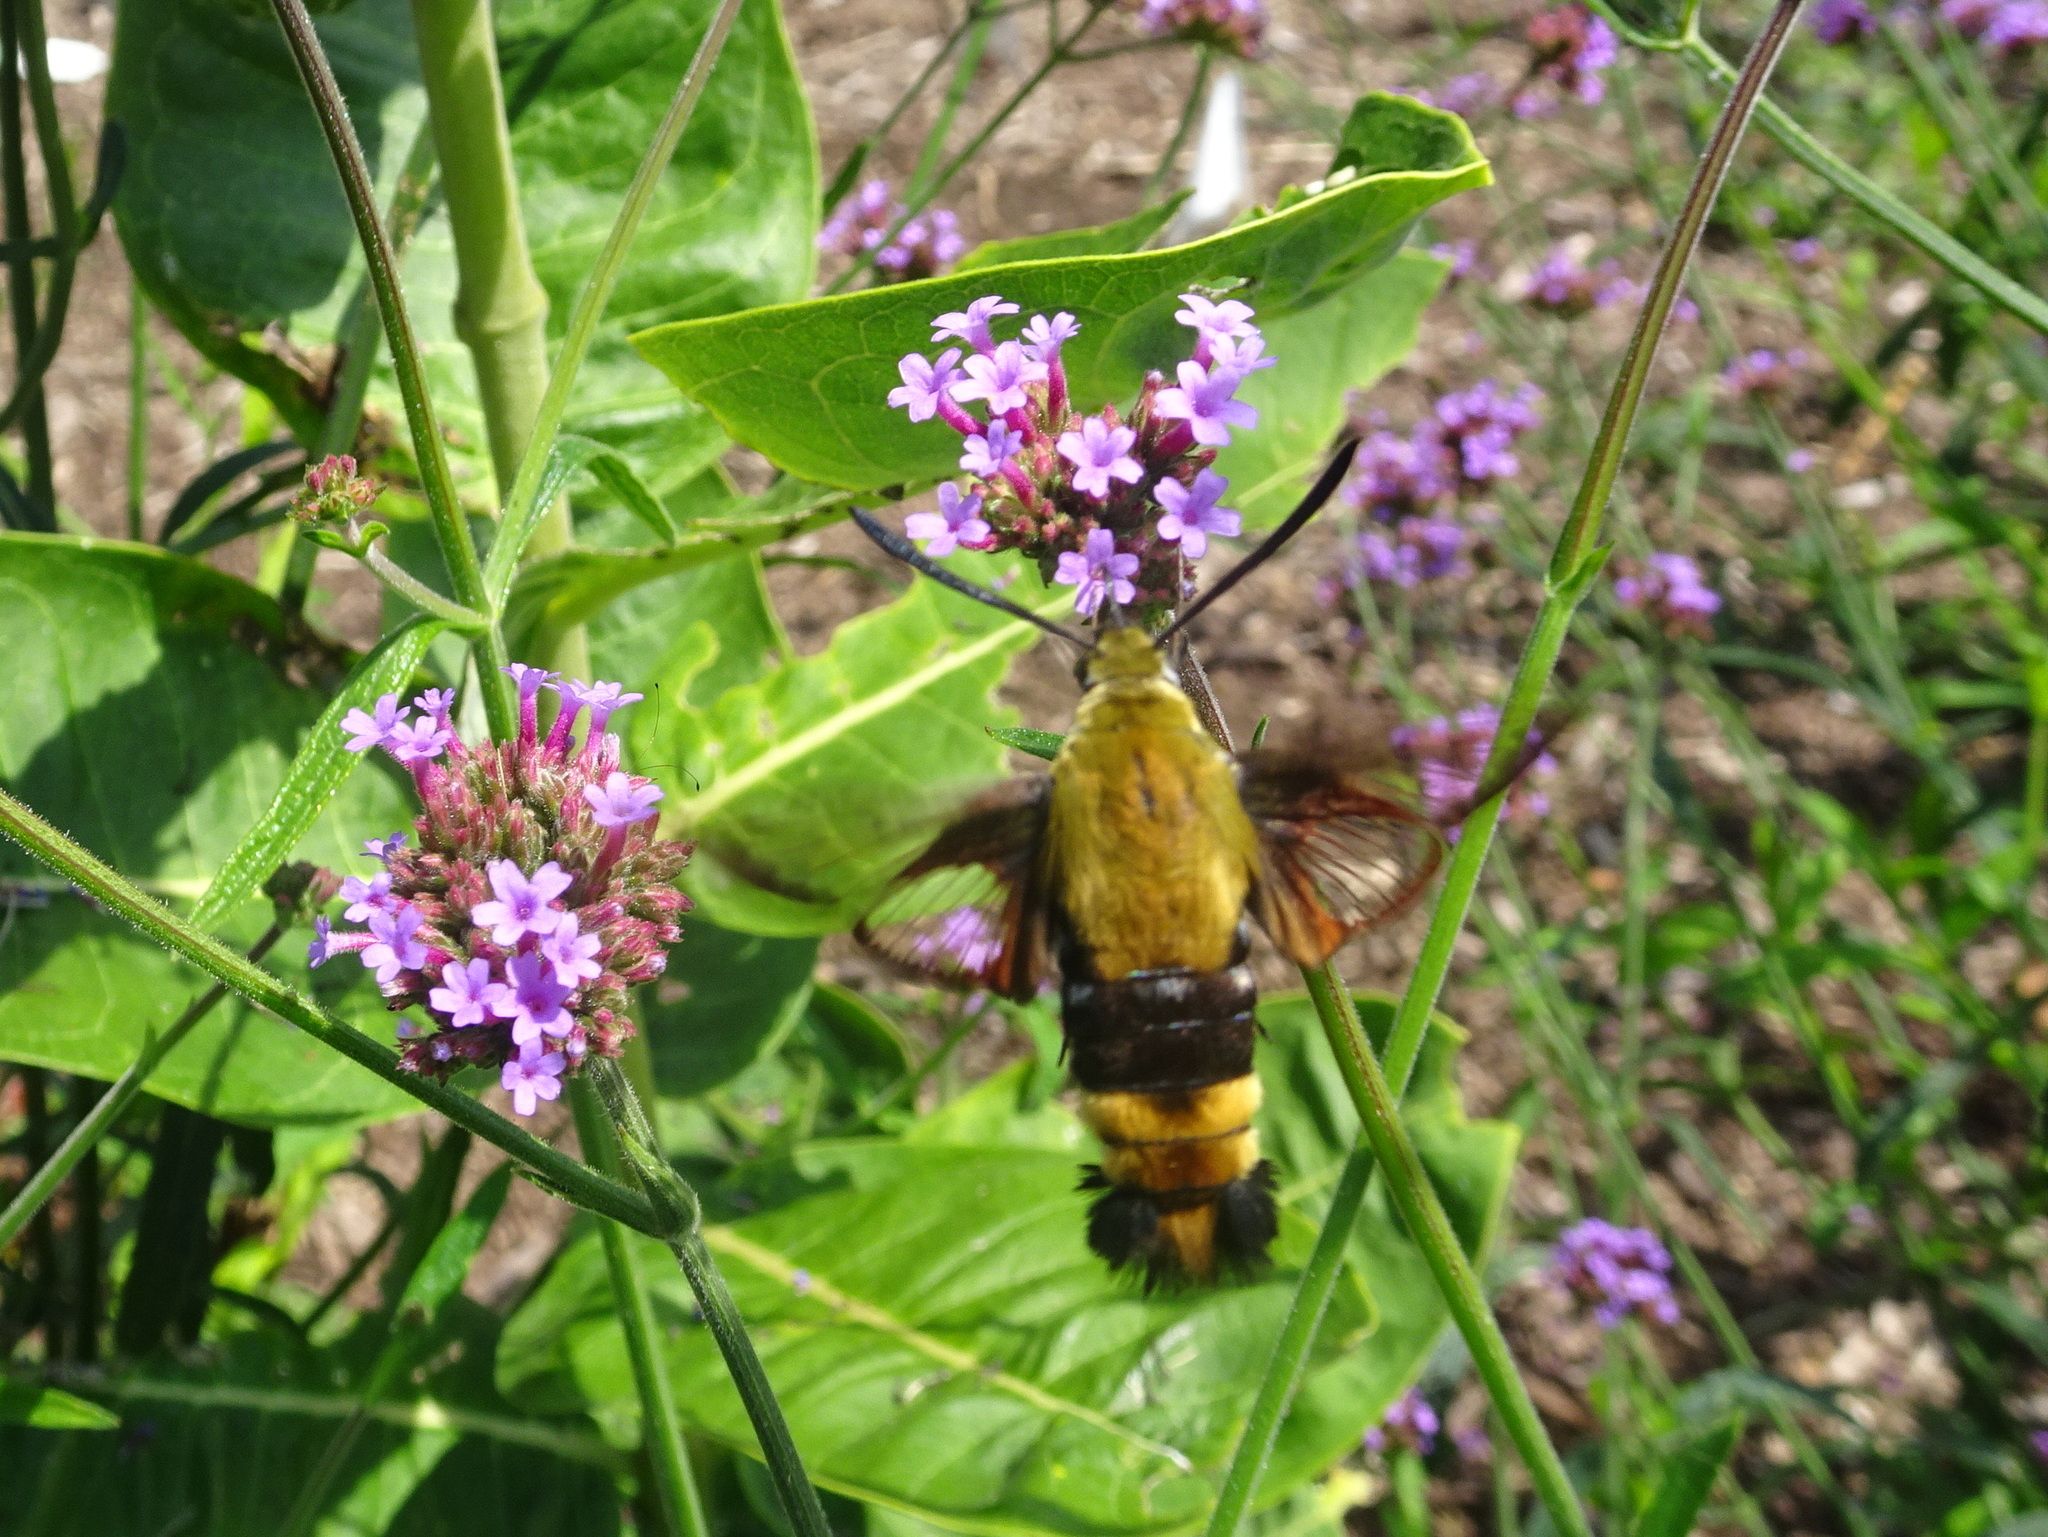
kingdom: Animalia
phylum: Arthropoda
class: Insecta
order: Lepidoptera
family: Sphingidae
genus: Hemaris
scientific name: Hemaris diffinis
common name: Bumblebee moth
